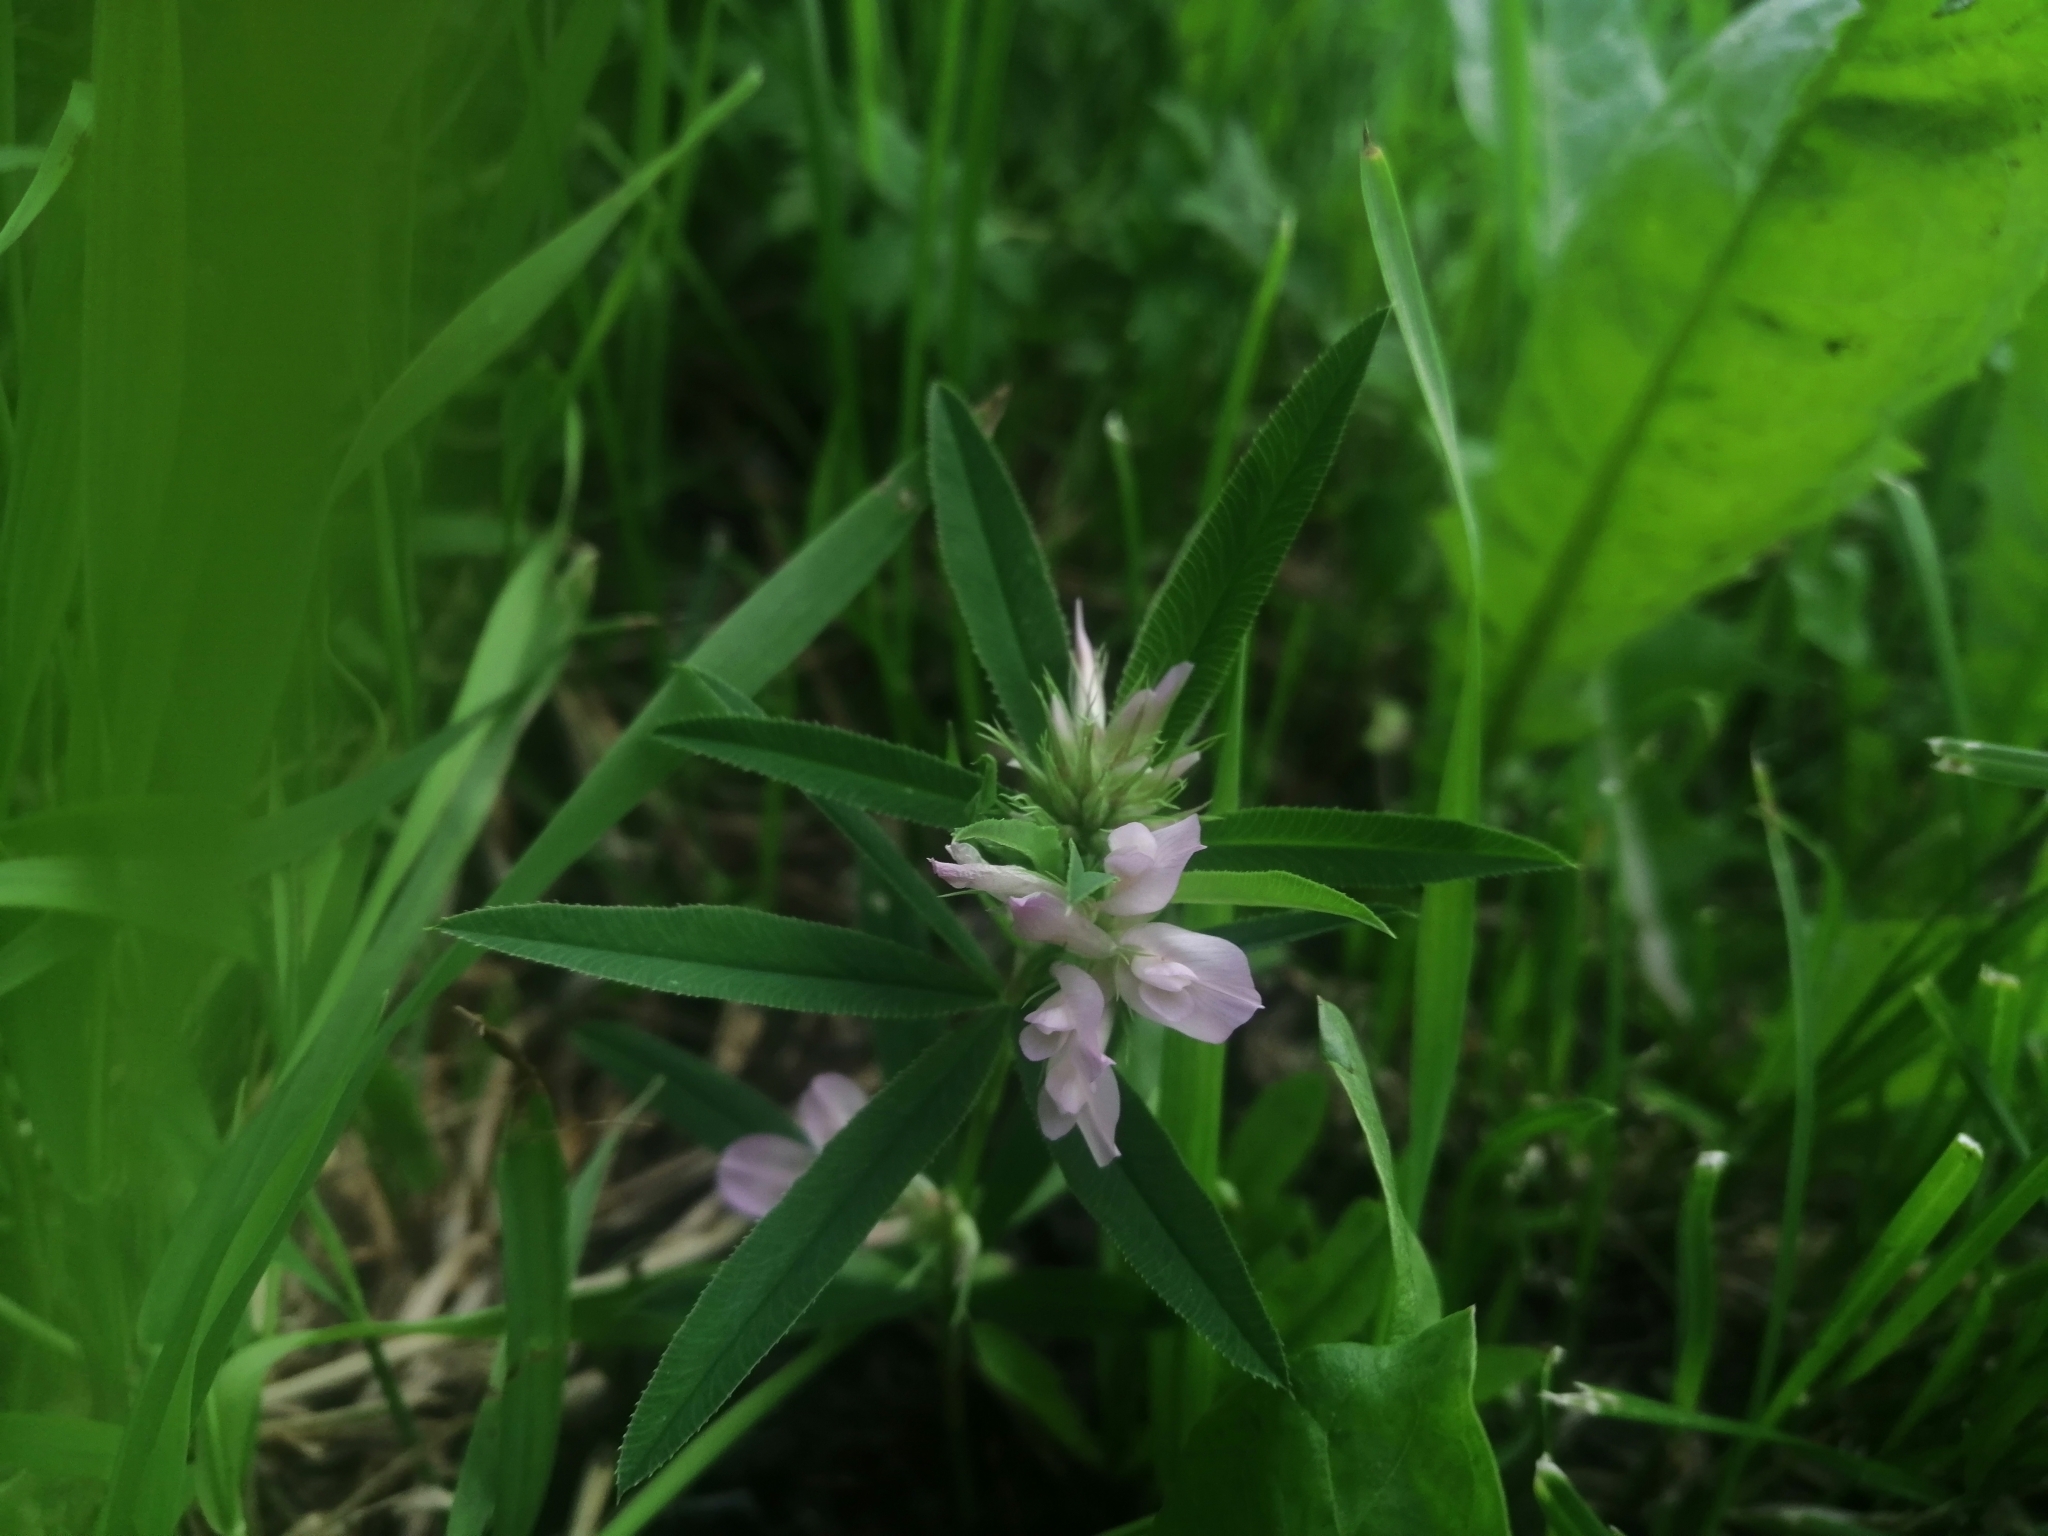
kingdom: Plantae
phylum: Tracheophyta
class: Magnoliopsida
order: Fabales
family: Fabaceae
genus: Trifolium
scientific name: Trifolium lupinaster
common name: Lupine clover
